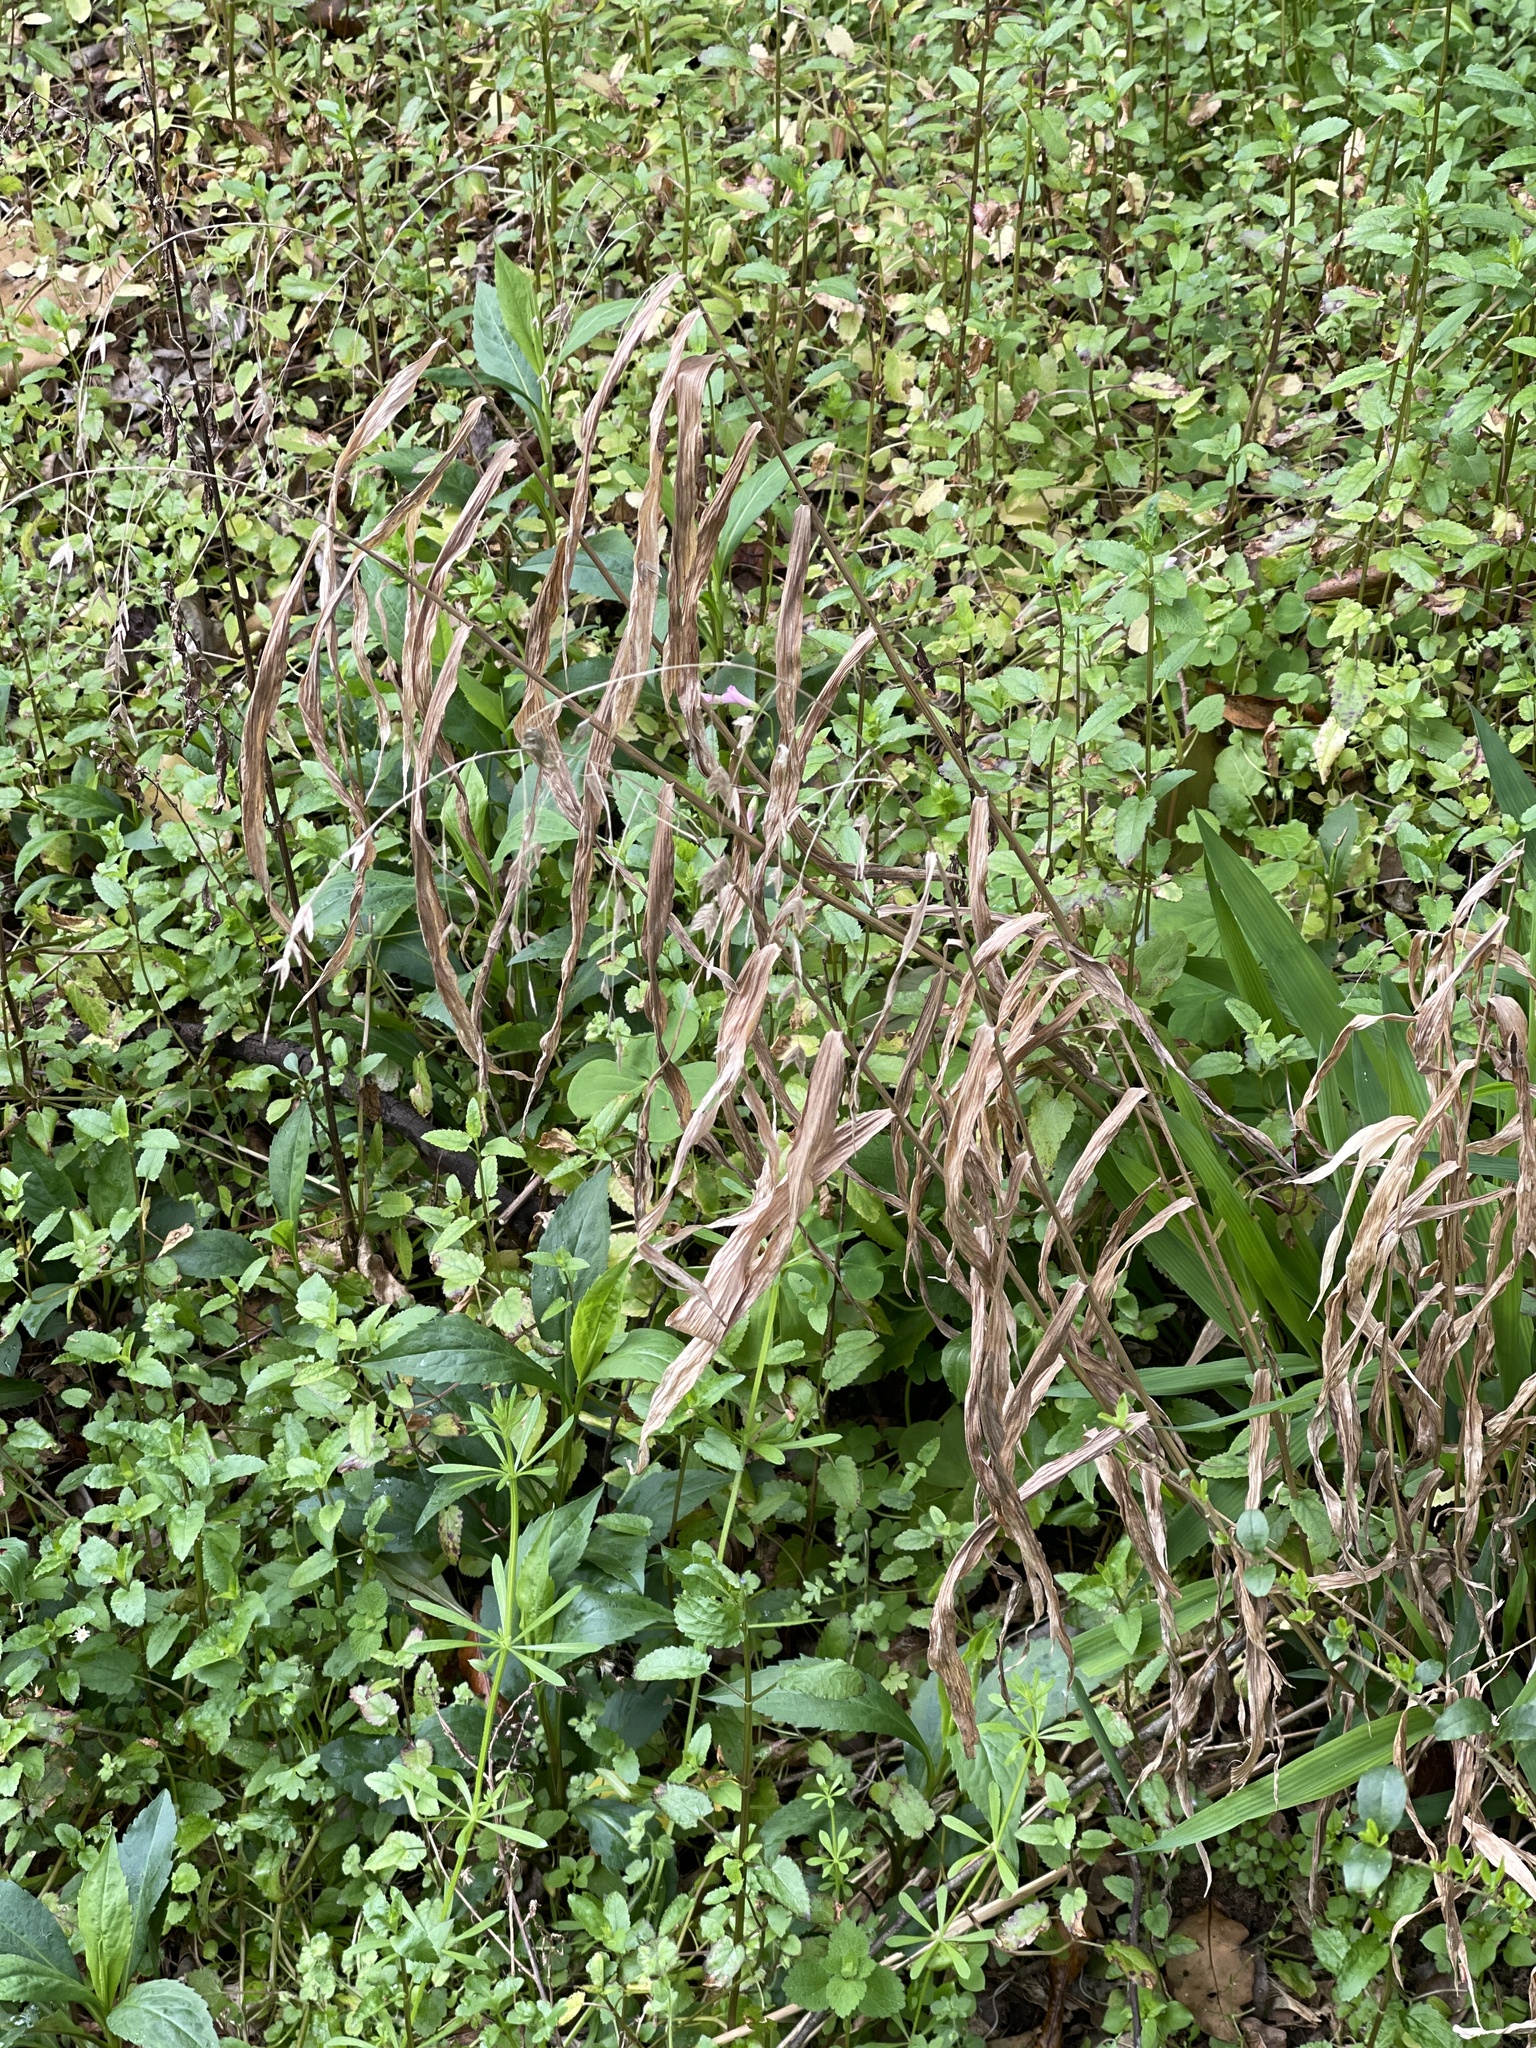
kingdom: Plantae
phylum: Tracheophyta
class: Liliopsida
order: Poales
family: Poaceae
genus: Chasmanthium
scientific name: Chasmanthium latifolium
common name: Broad-leaved chasmanthium
